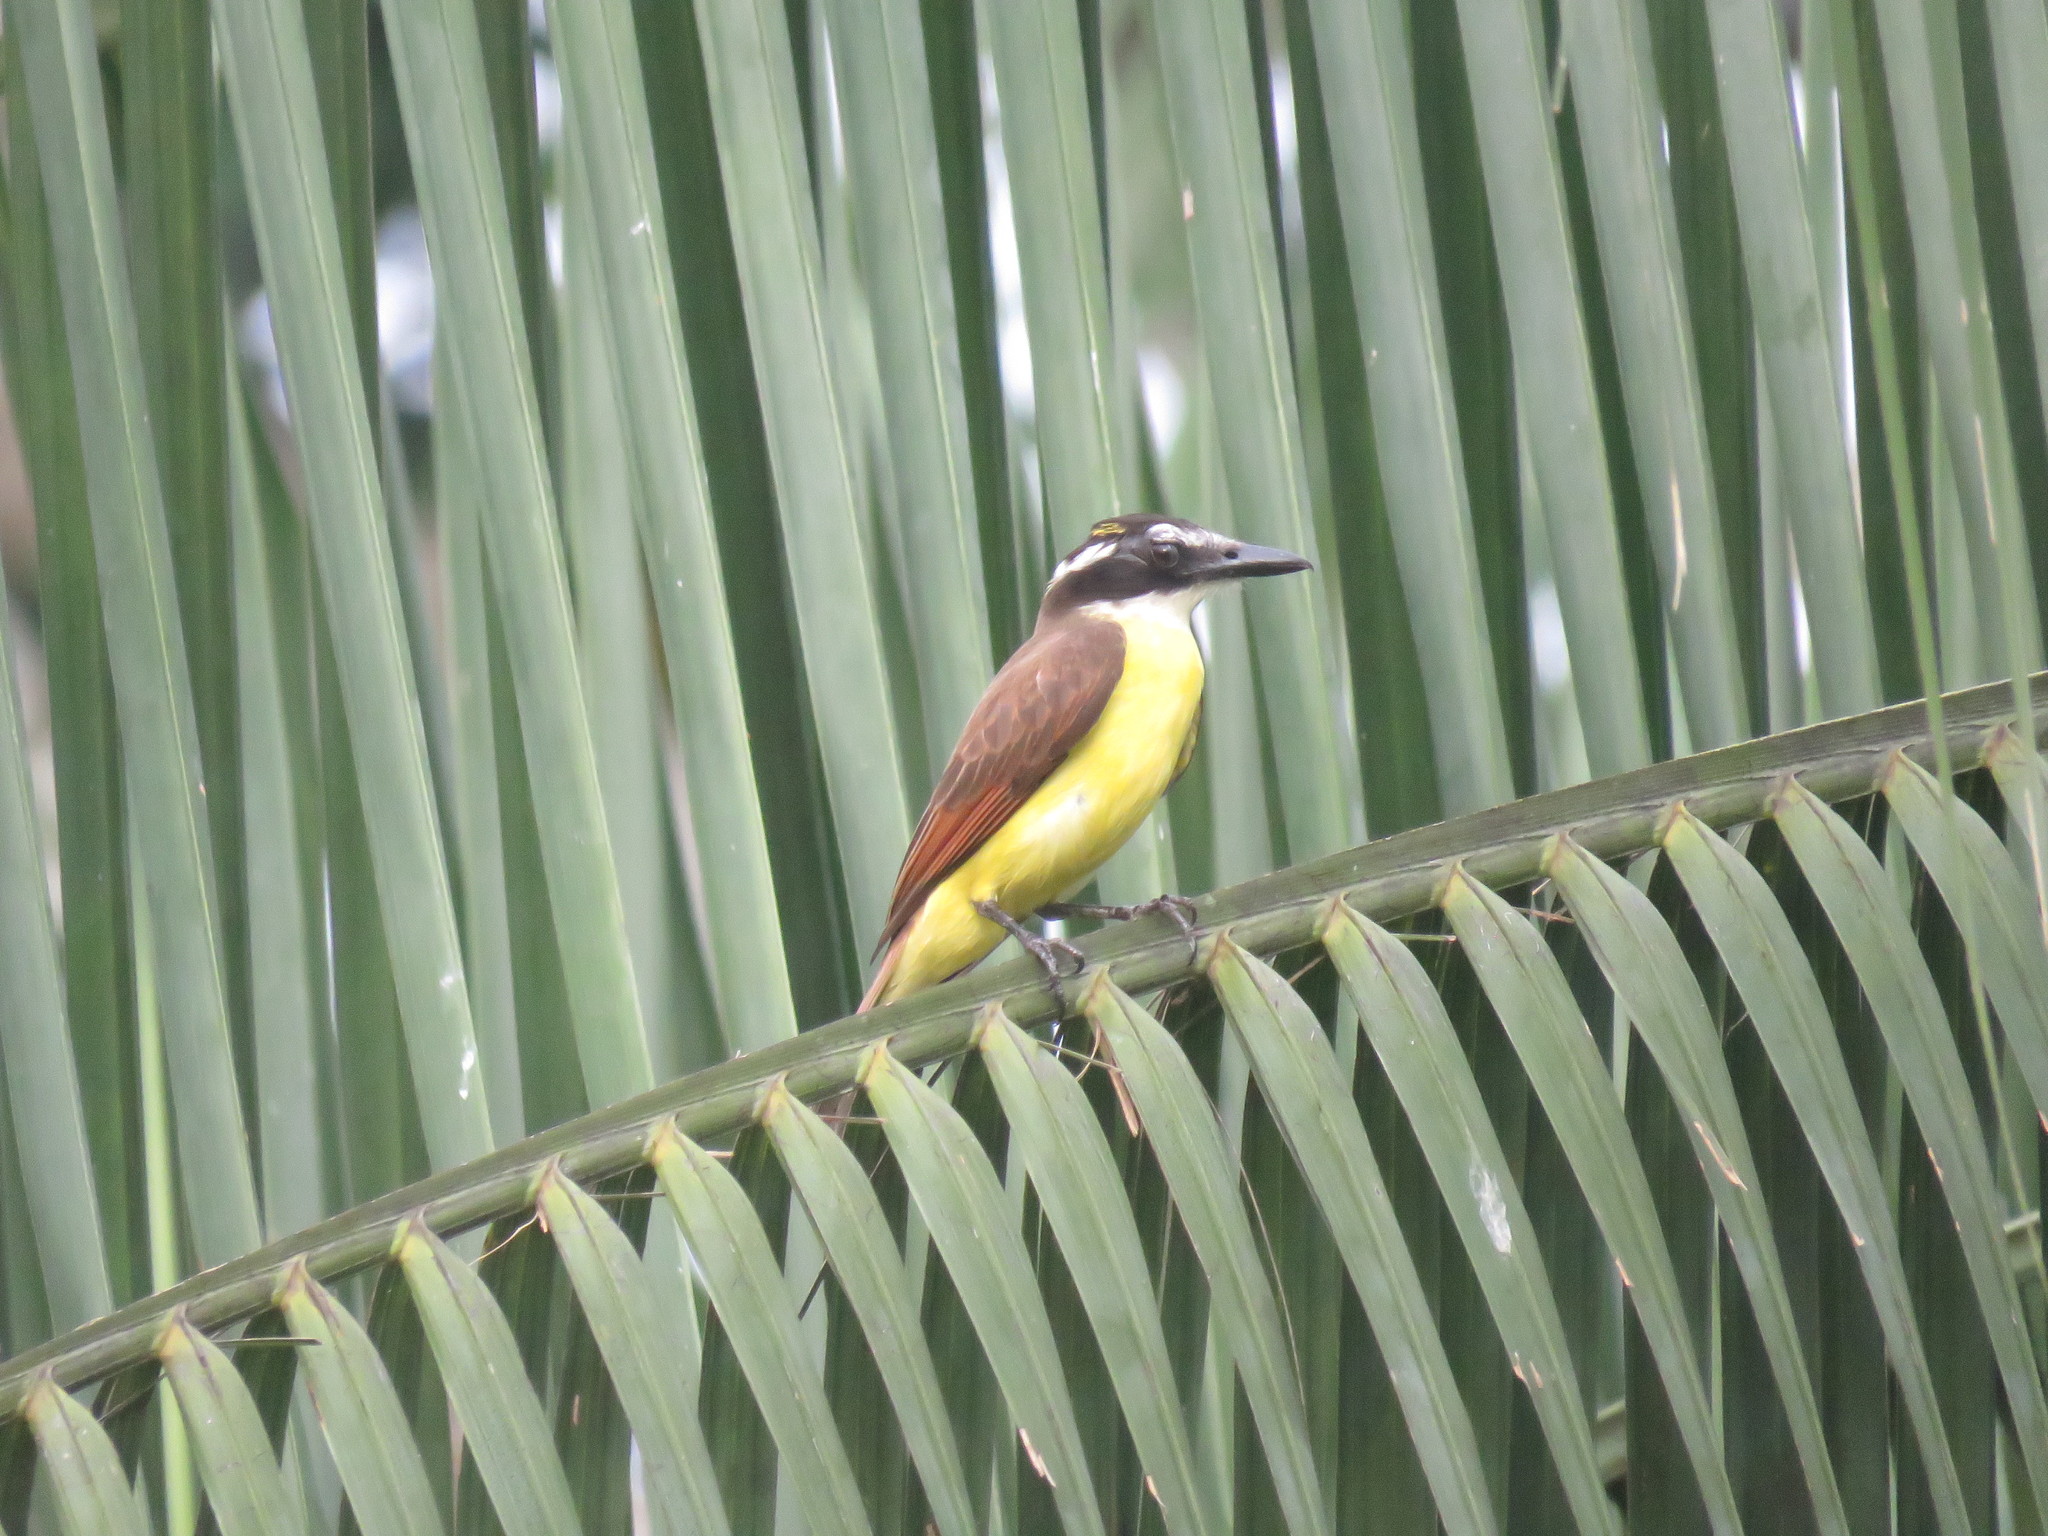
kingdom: Animalia
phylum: Chordata
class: Aves
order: Passeriformes
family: Tyrannidae
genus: Megarynchus
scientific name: Megarynchus pitangua
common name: Boat-billed flycatcher
